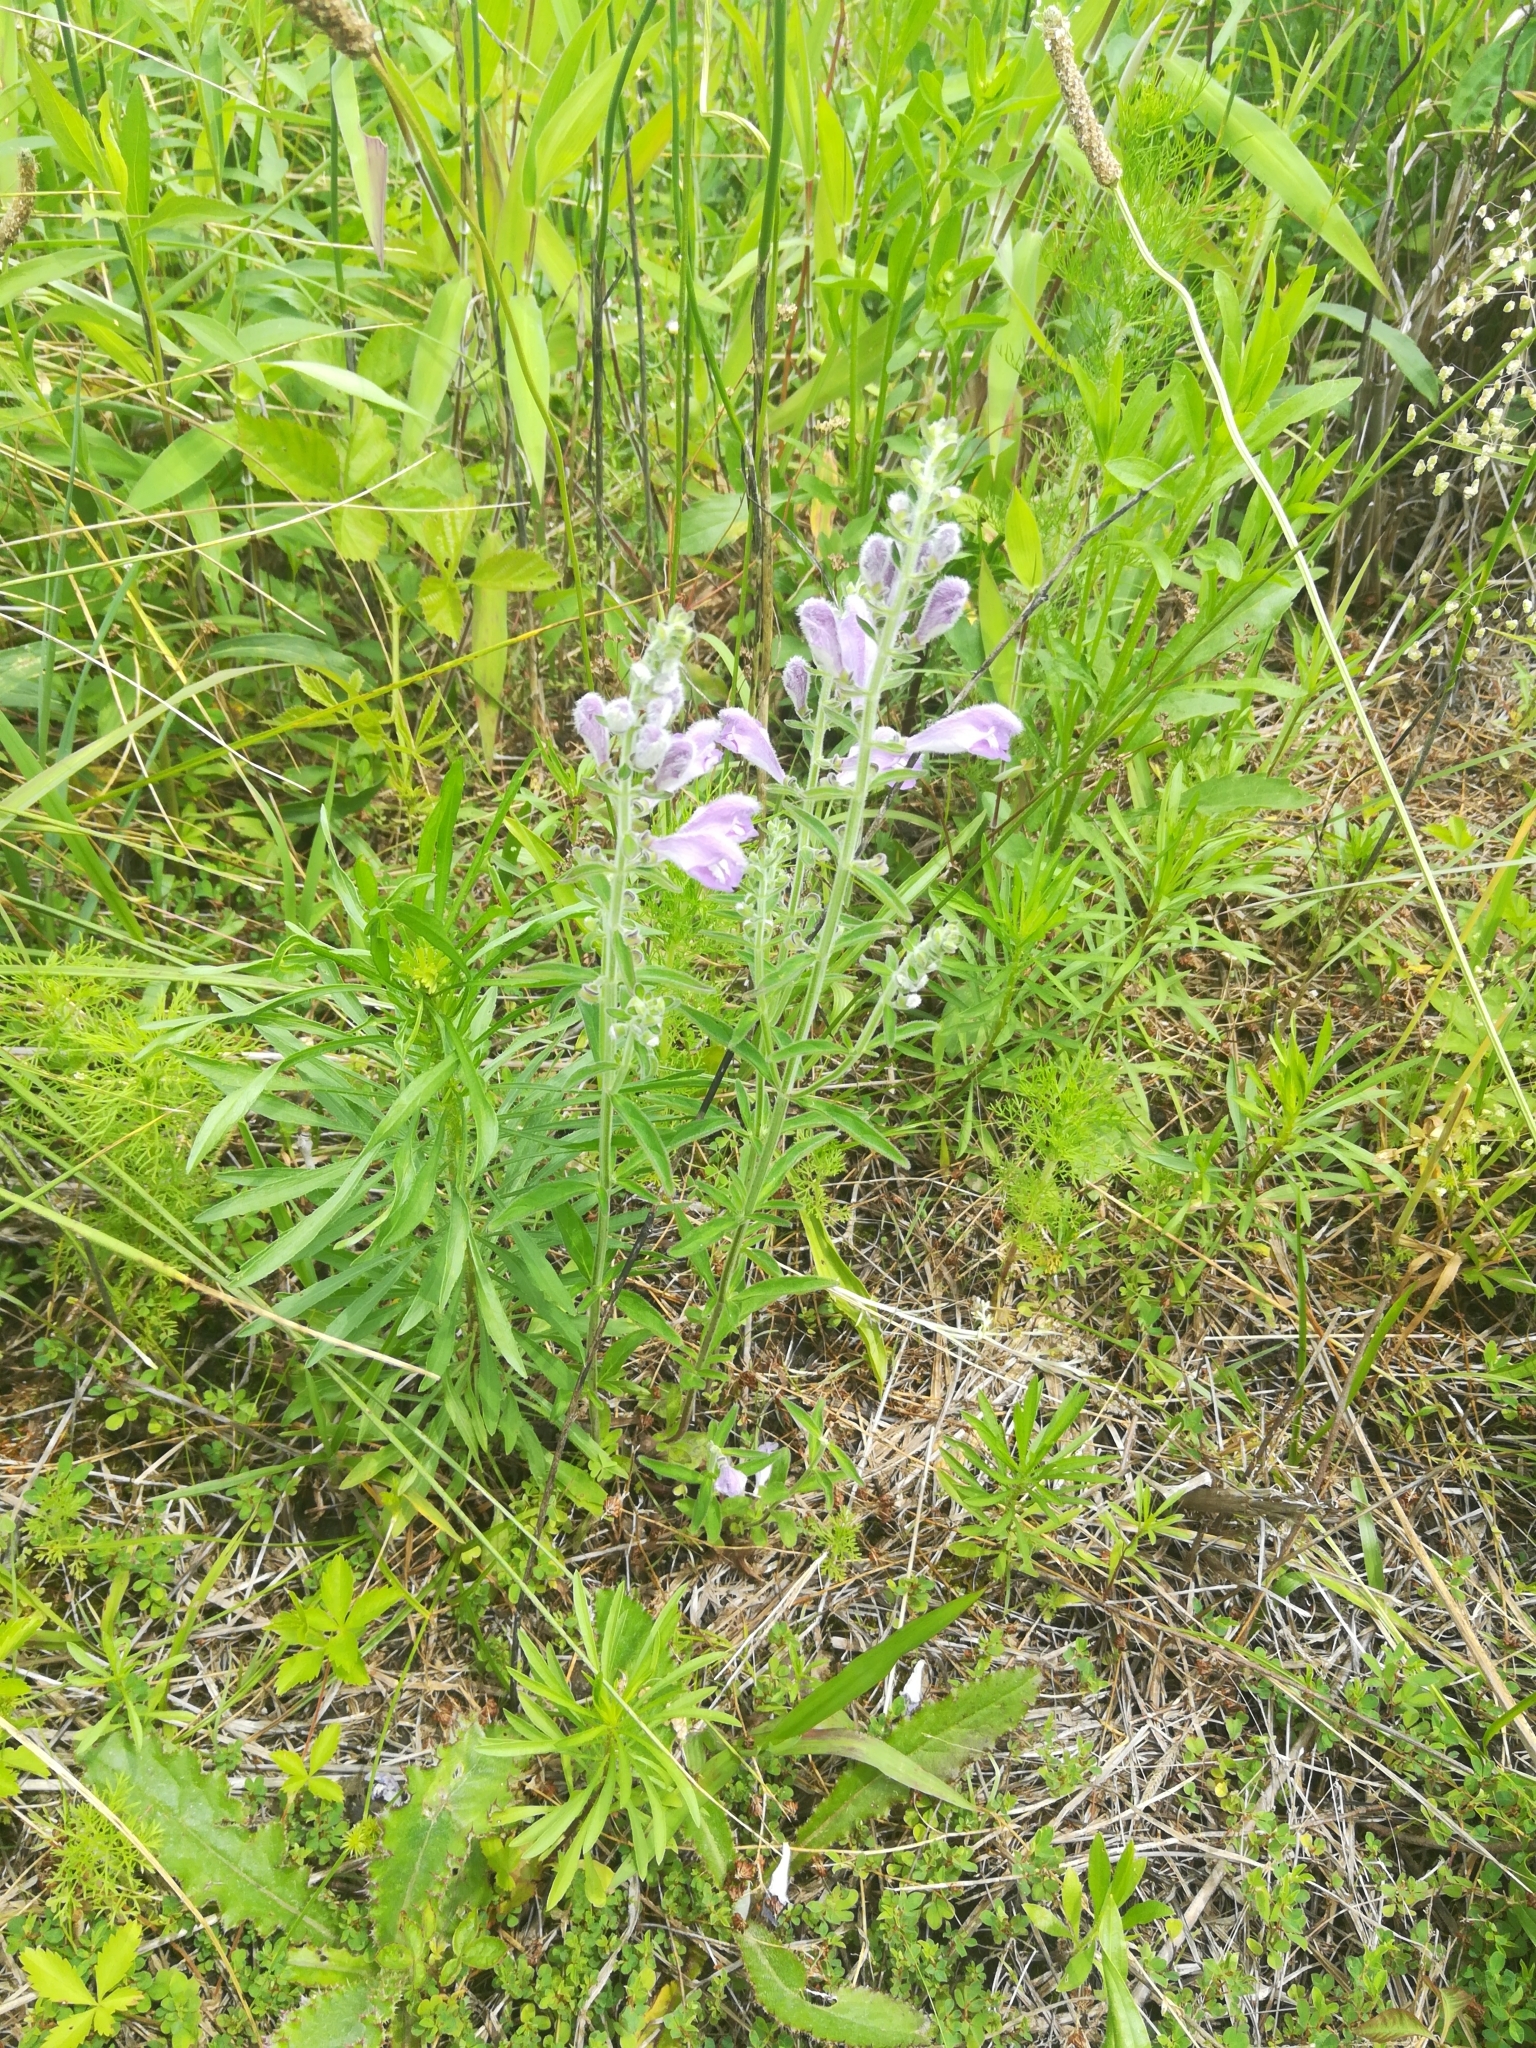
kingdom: Plantae
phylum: Tracheophyta
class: Magnoliopsida
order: Lamiales
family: Lamiaceae
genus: Scutellaria
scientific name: Scutellaria integrifolia
